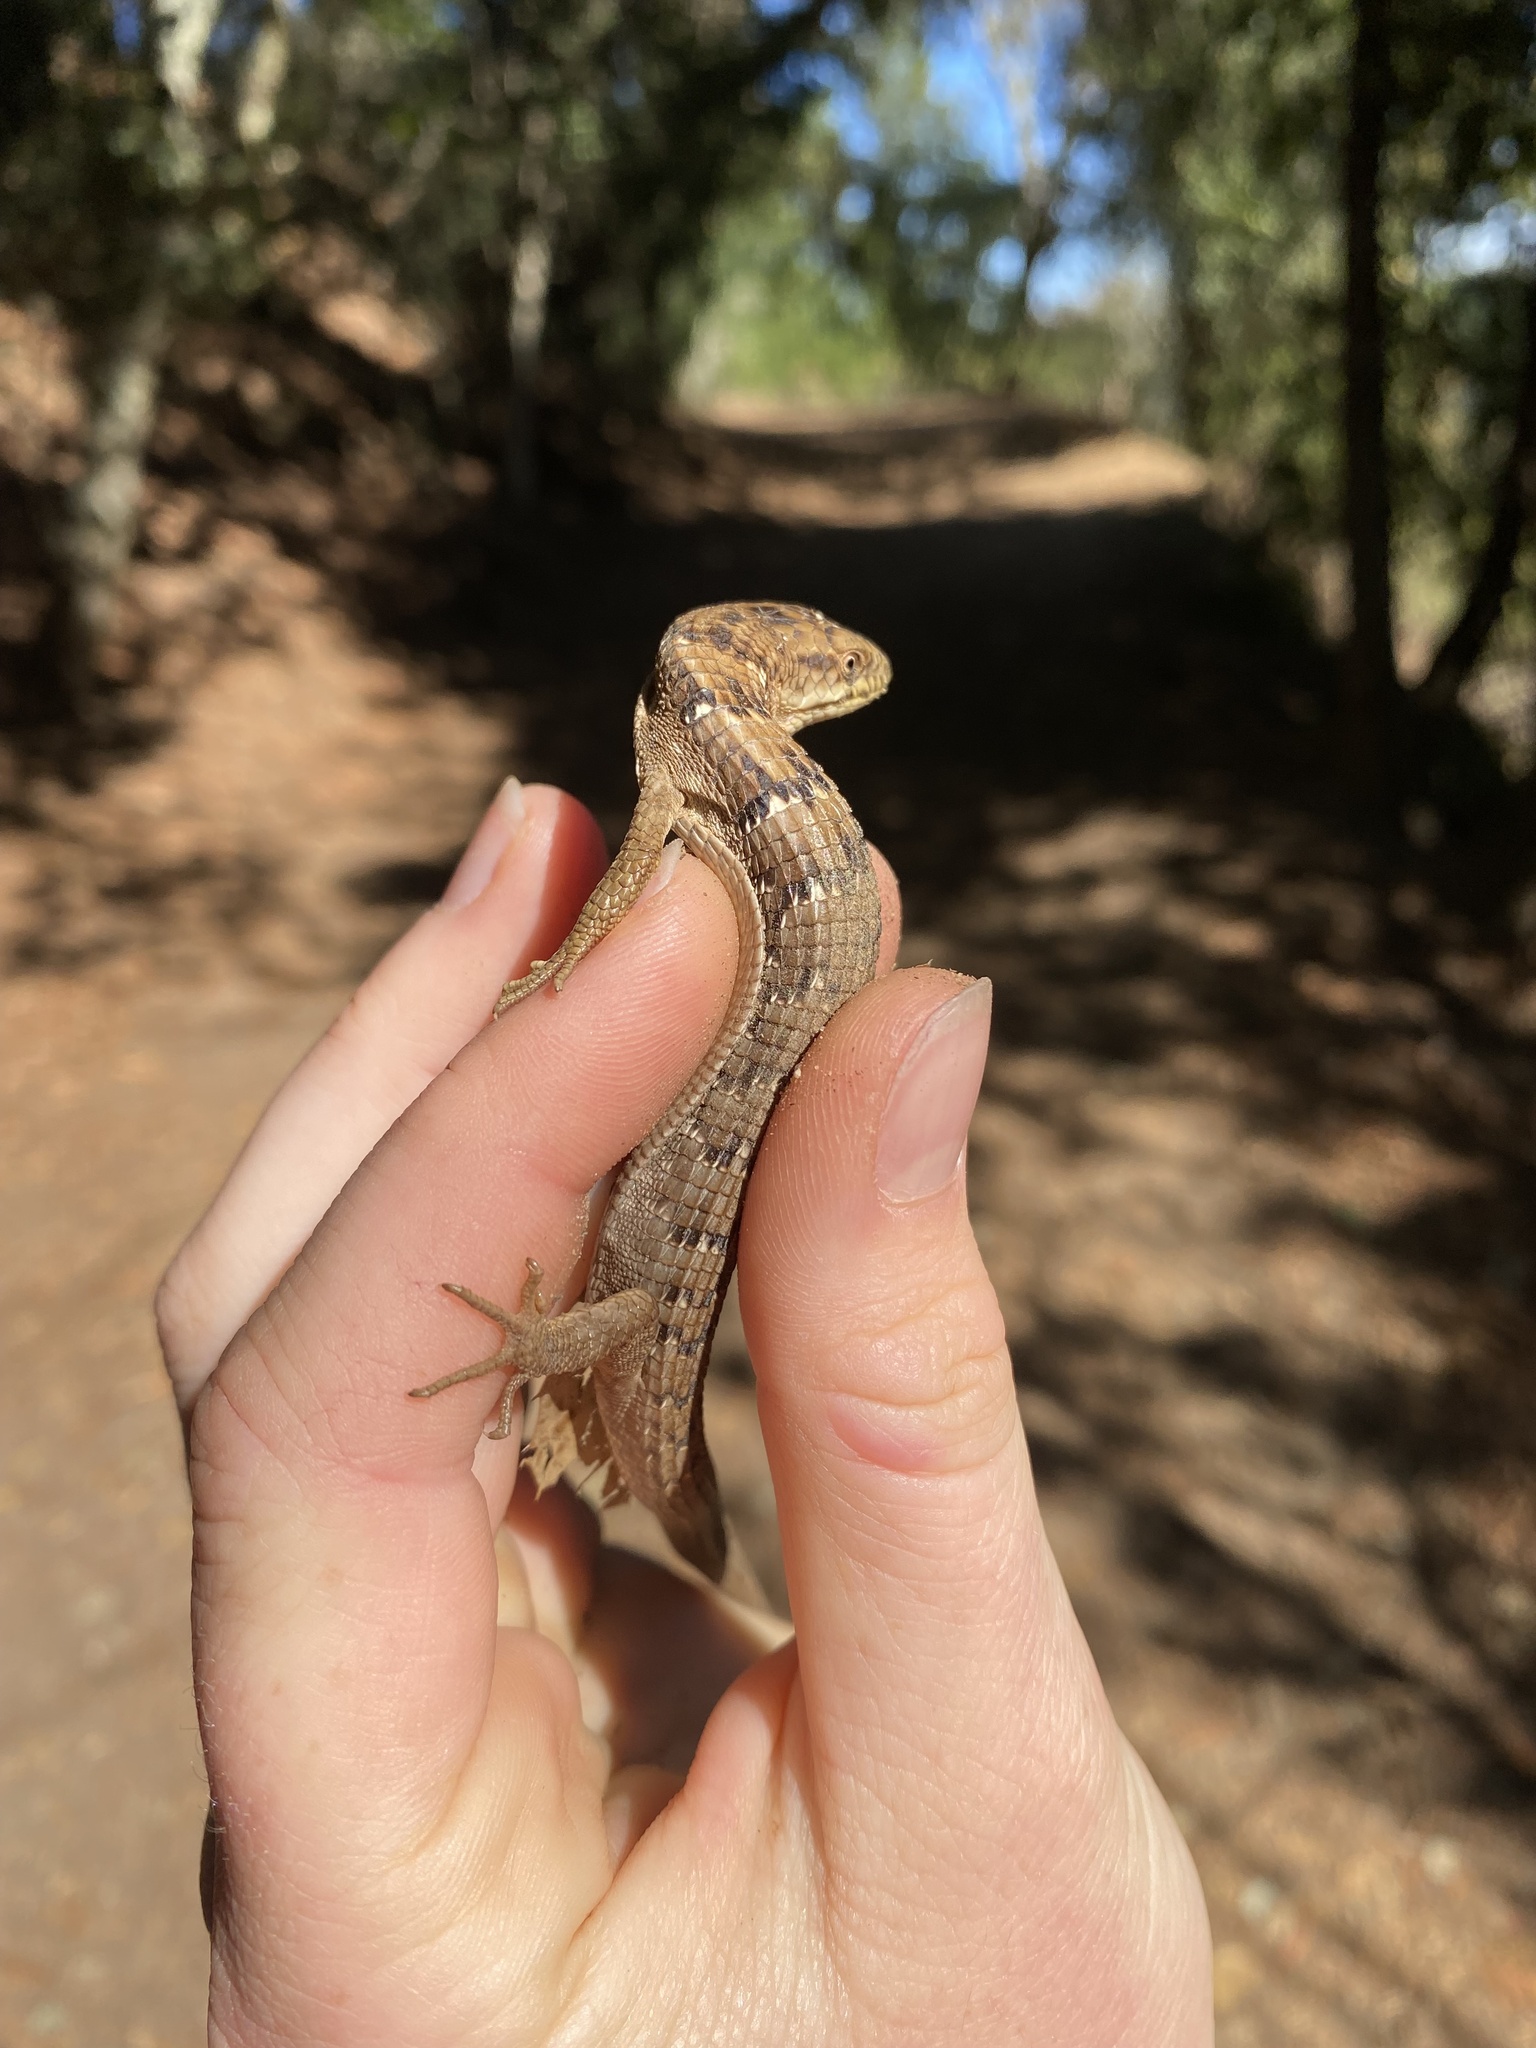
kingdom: Animalia
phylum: Chordata
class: Squamata
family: Anguidae
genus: Elgaria
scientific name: Elgaria multicarinata
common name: Southern alligator lizard
